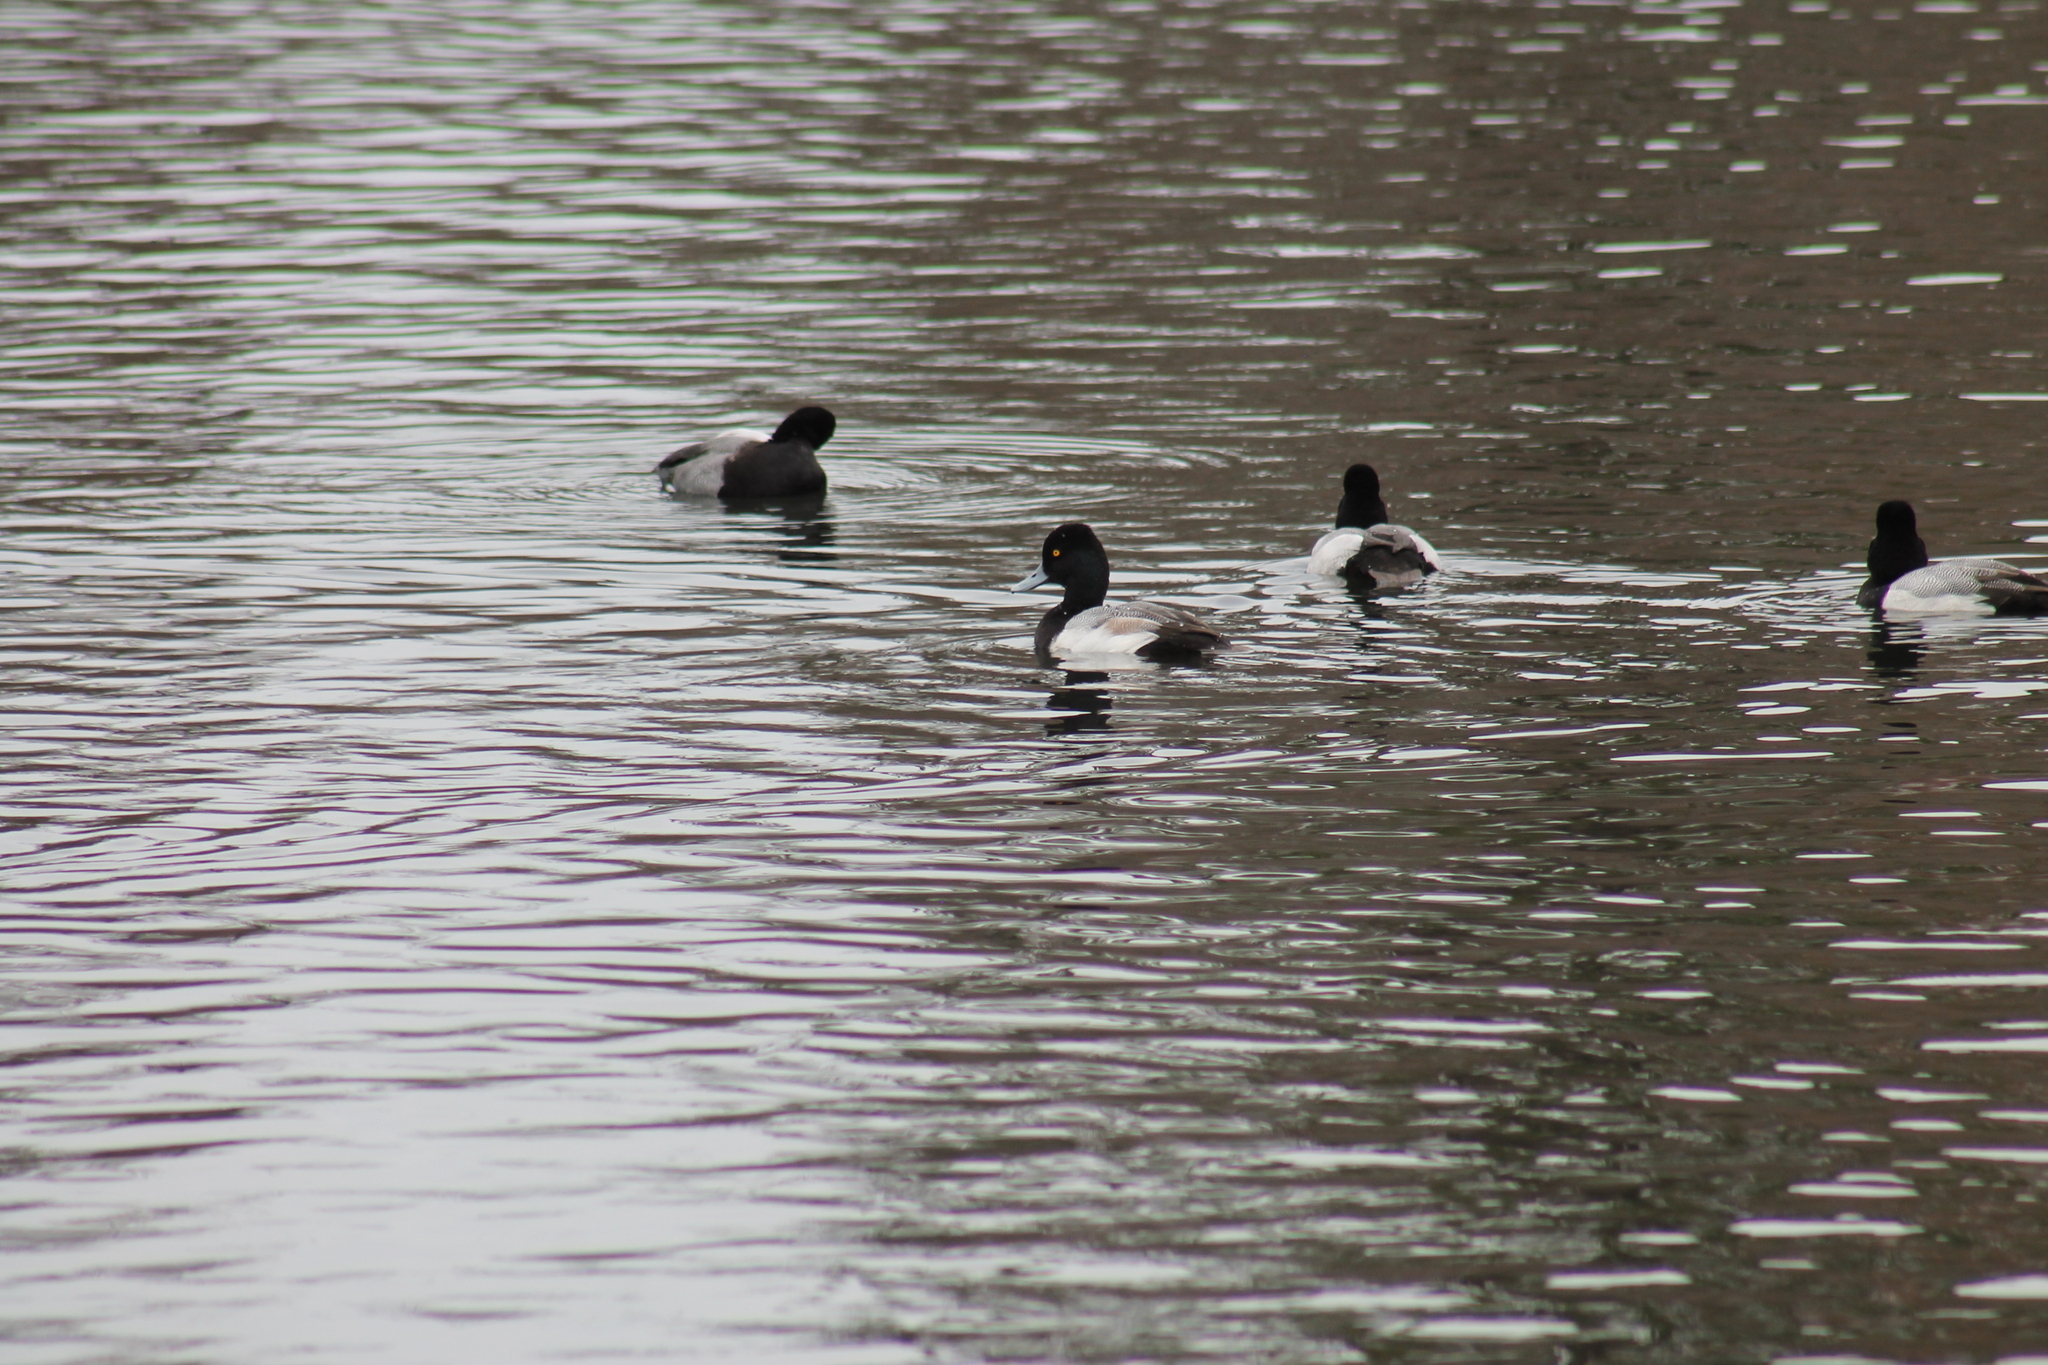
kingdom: Animalia
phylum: Chordata
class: Aves
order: Anseriformes
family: Anatidae
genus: Aythya
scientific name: Aythya affinis
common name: Lesser scaup
